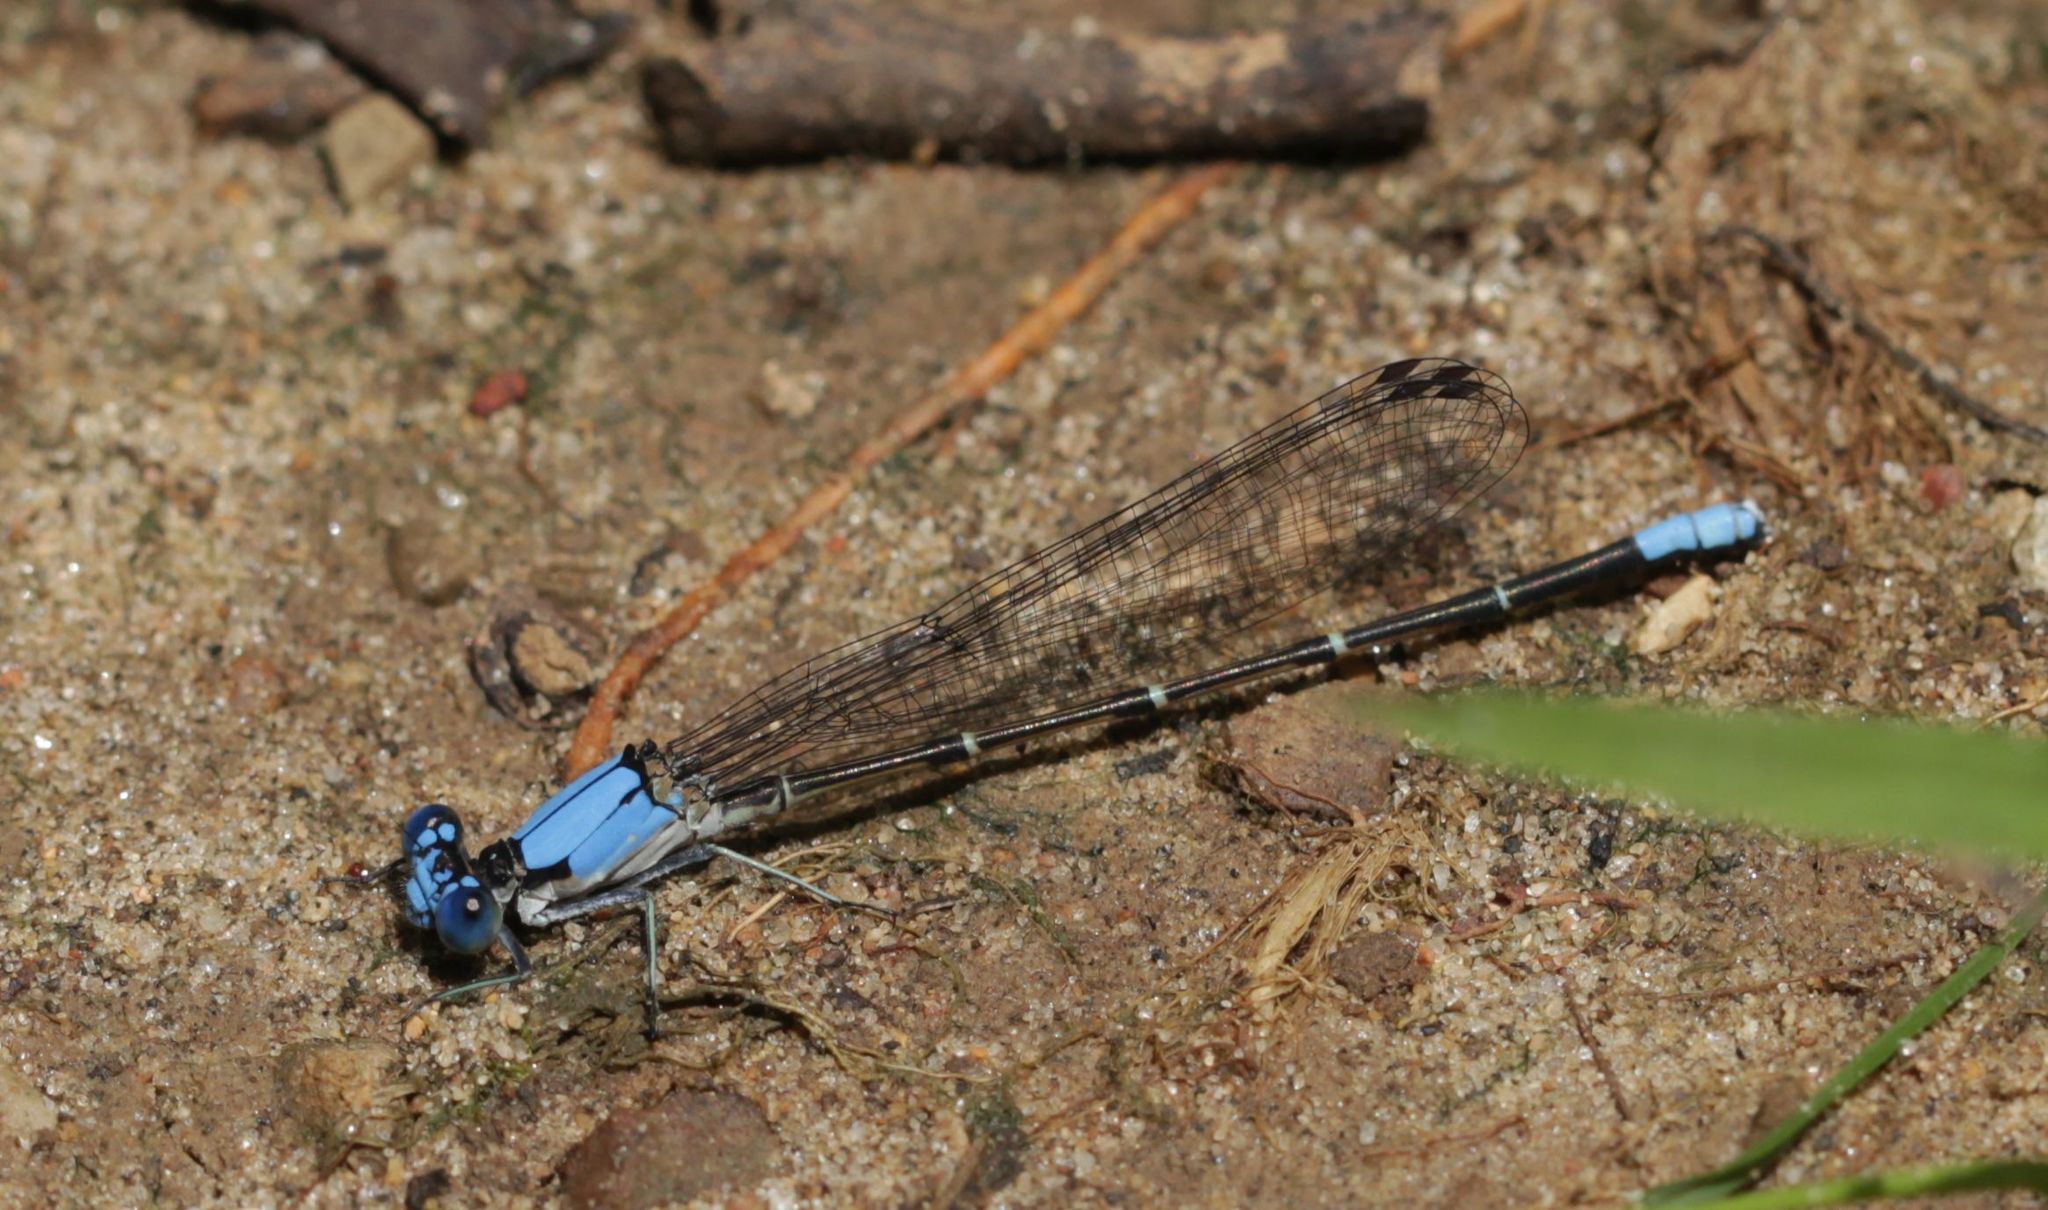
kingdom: Animalia
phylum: Arthropoda
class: Insecta
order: Odonata
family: Coenagrionidae
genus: Argia
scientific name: Argia apicalis
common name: Blue-fronted dancer
